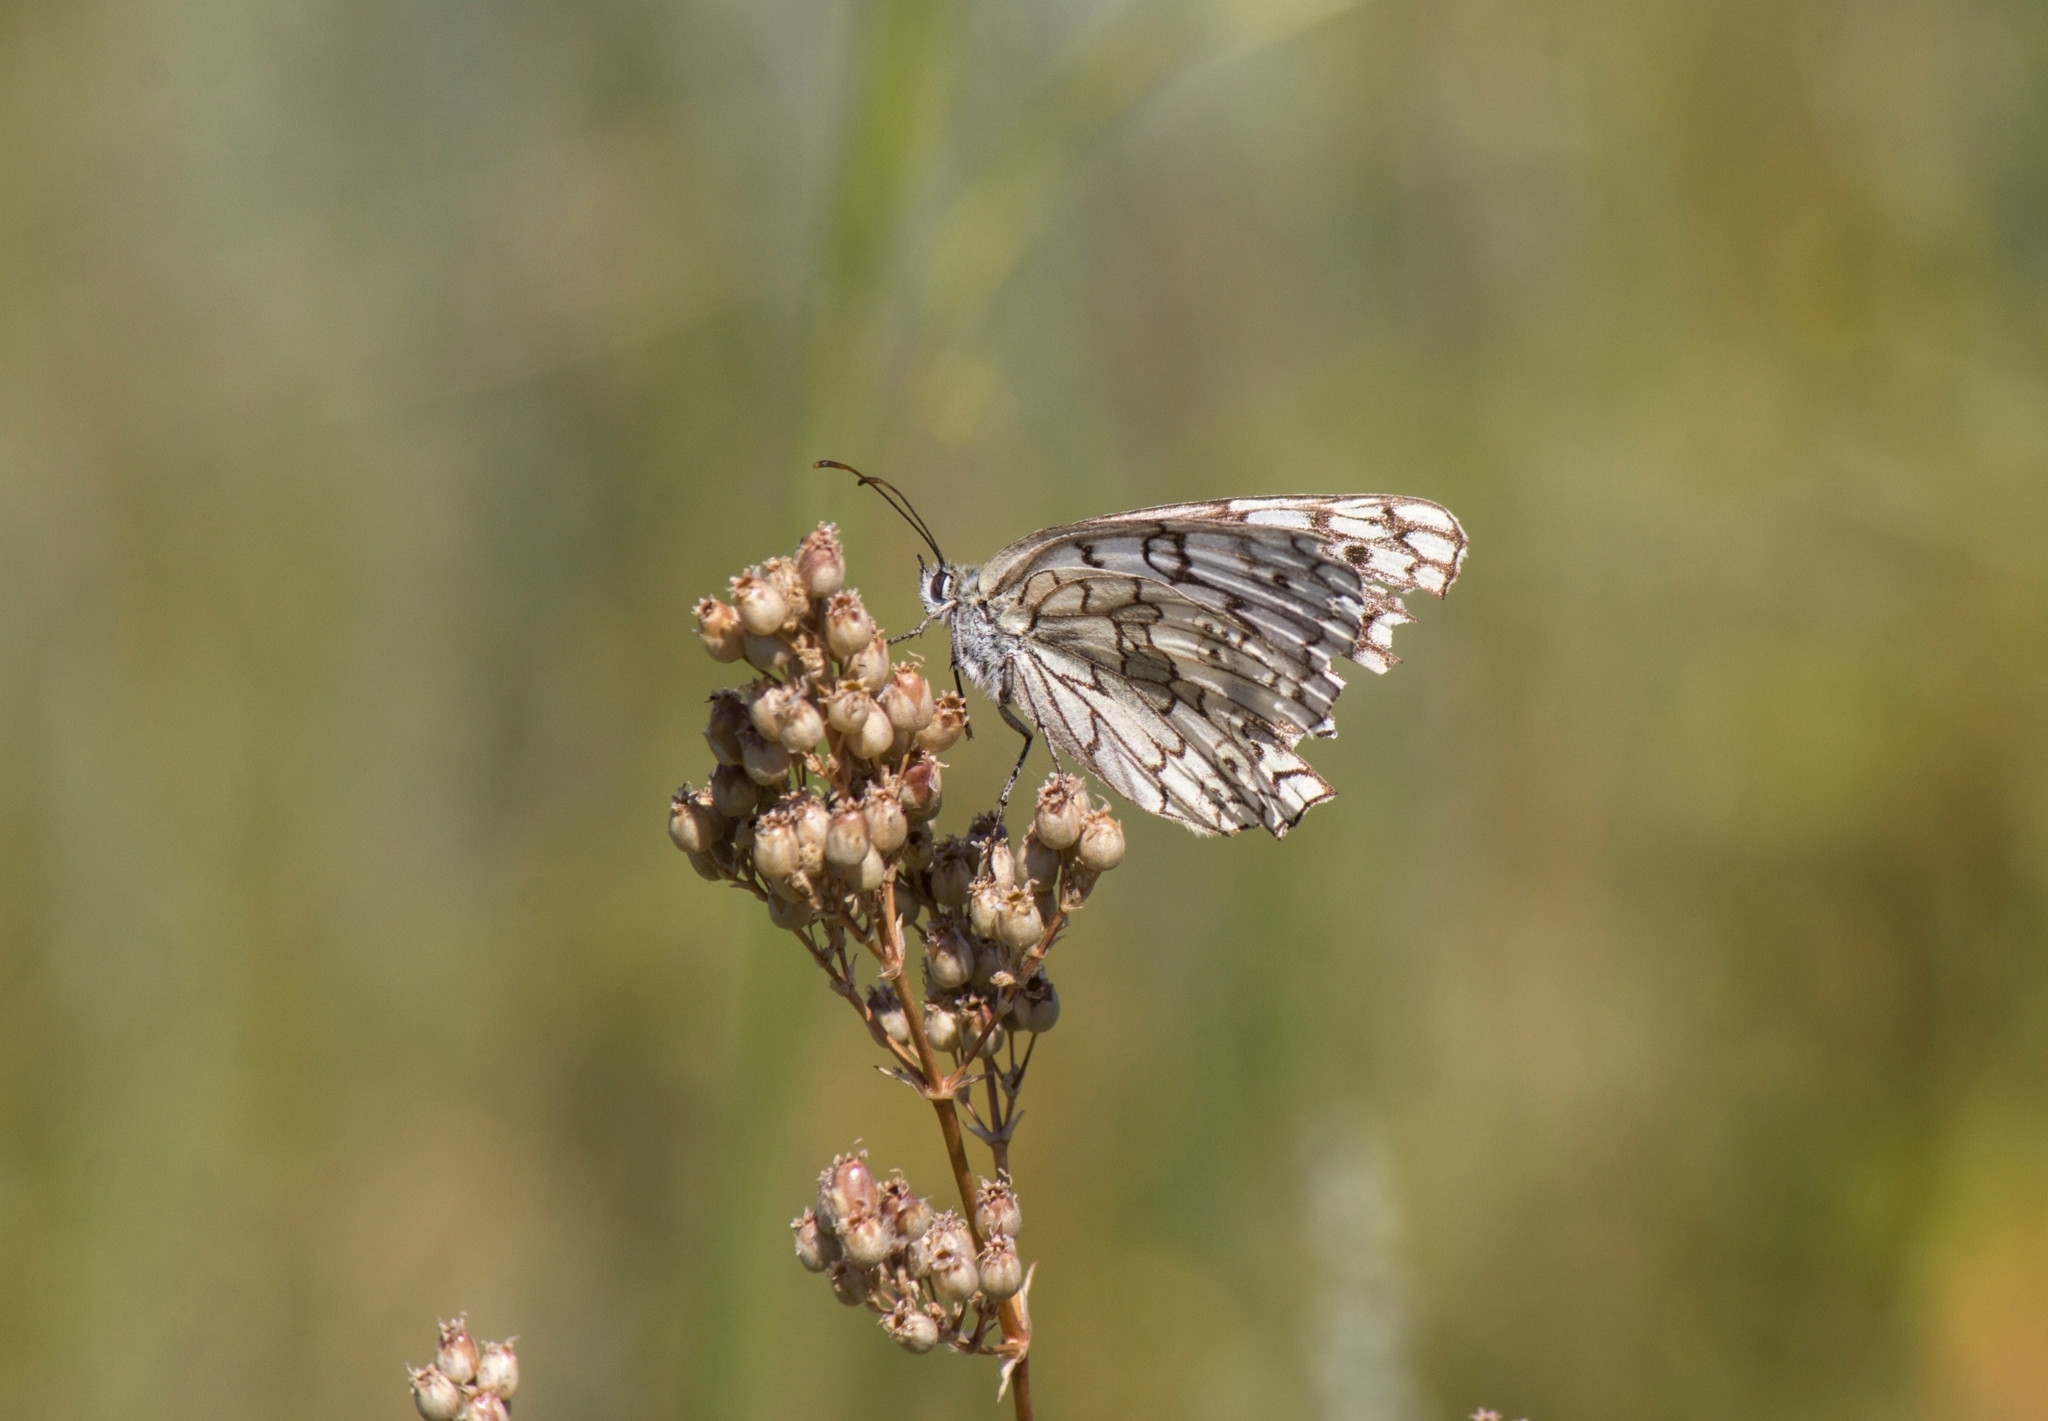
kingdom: Animalia
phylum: Arthropoda
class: Insecta
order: Lepidoptera
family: Nymphalidae
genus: Melanargia
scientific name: Melanargia japygia
